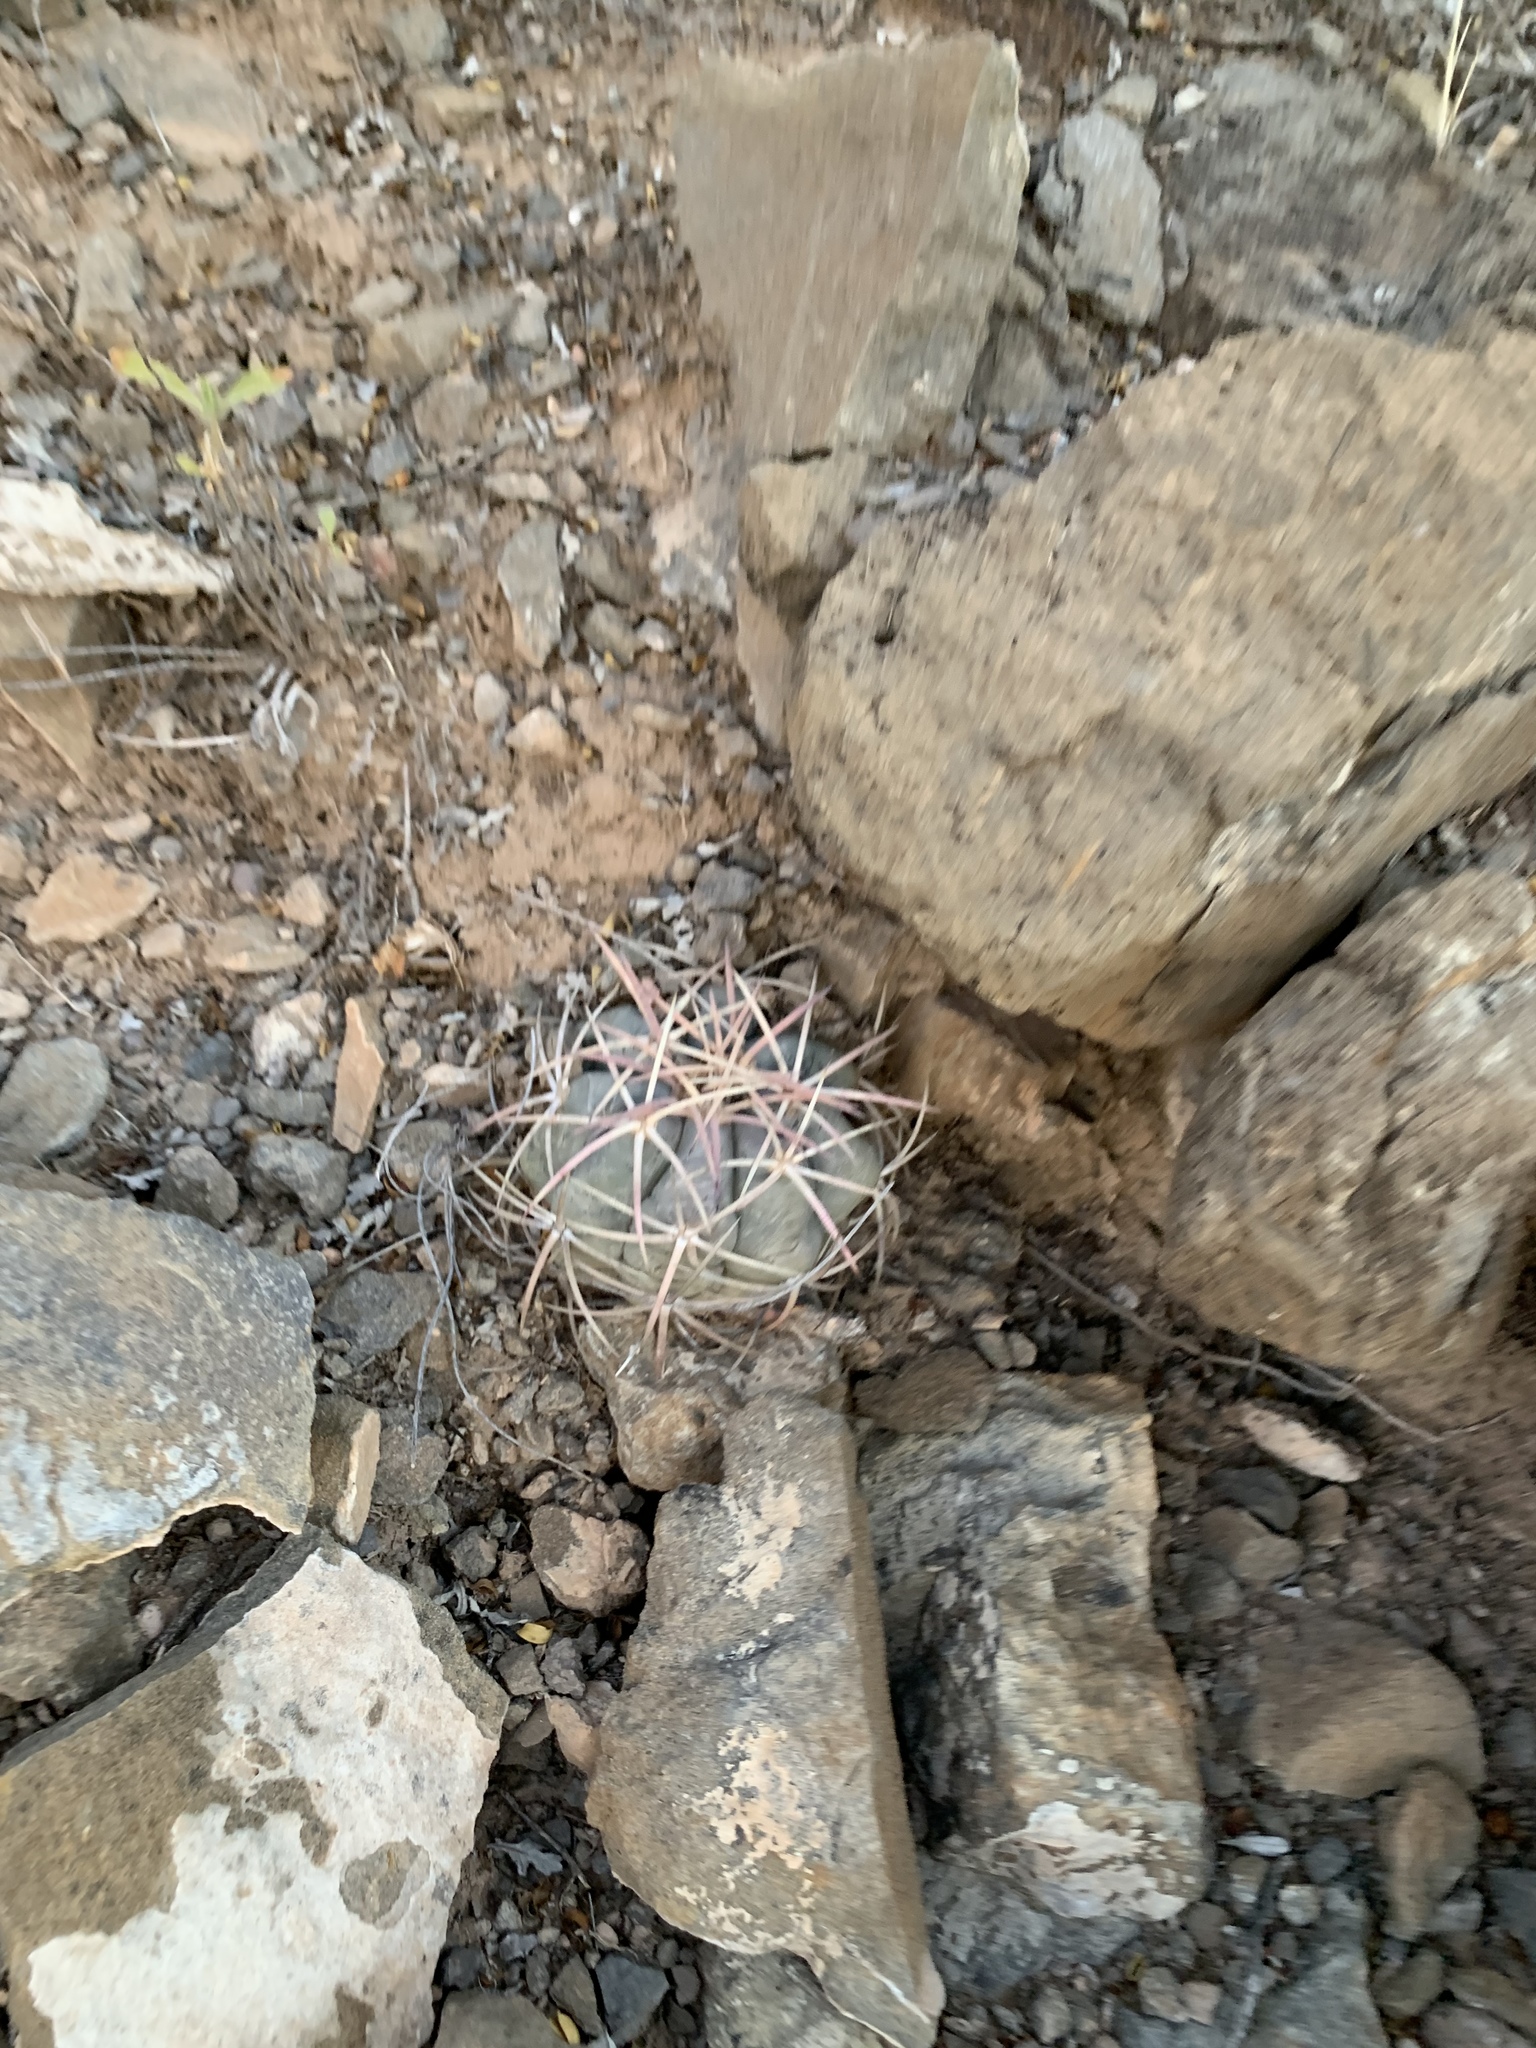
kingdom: Plantae
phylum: Tracheophyta
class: Magnoliopsida
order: Caryophyllales
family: Cactaceae
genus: Echinocactus
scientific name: Echinocactus horizonthalonius
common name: Devilshead
